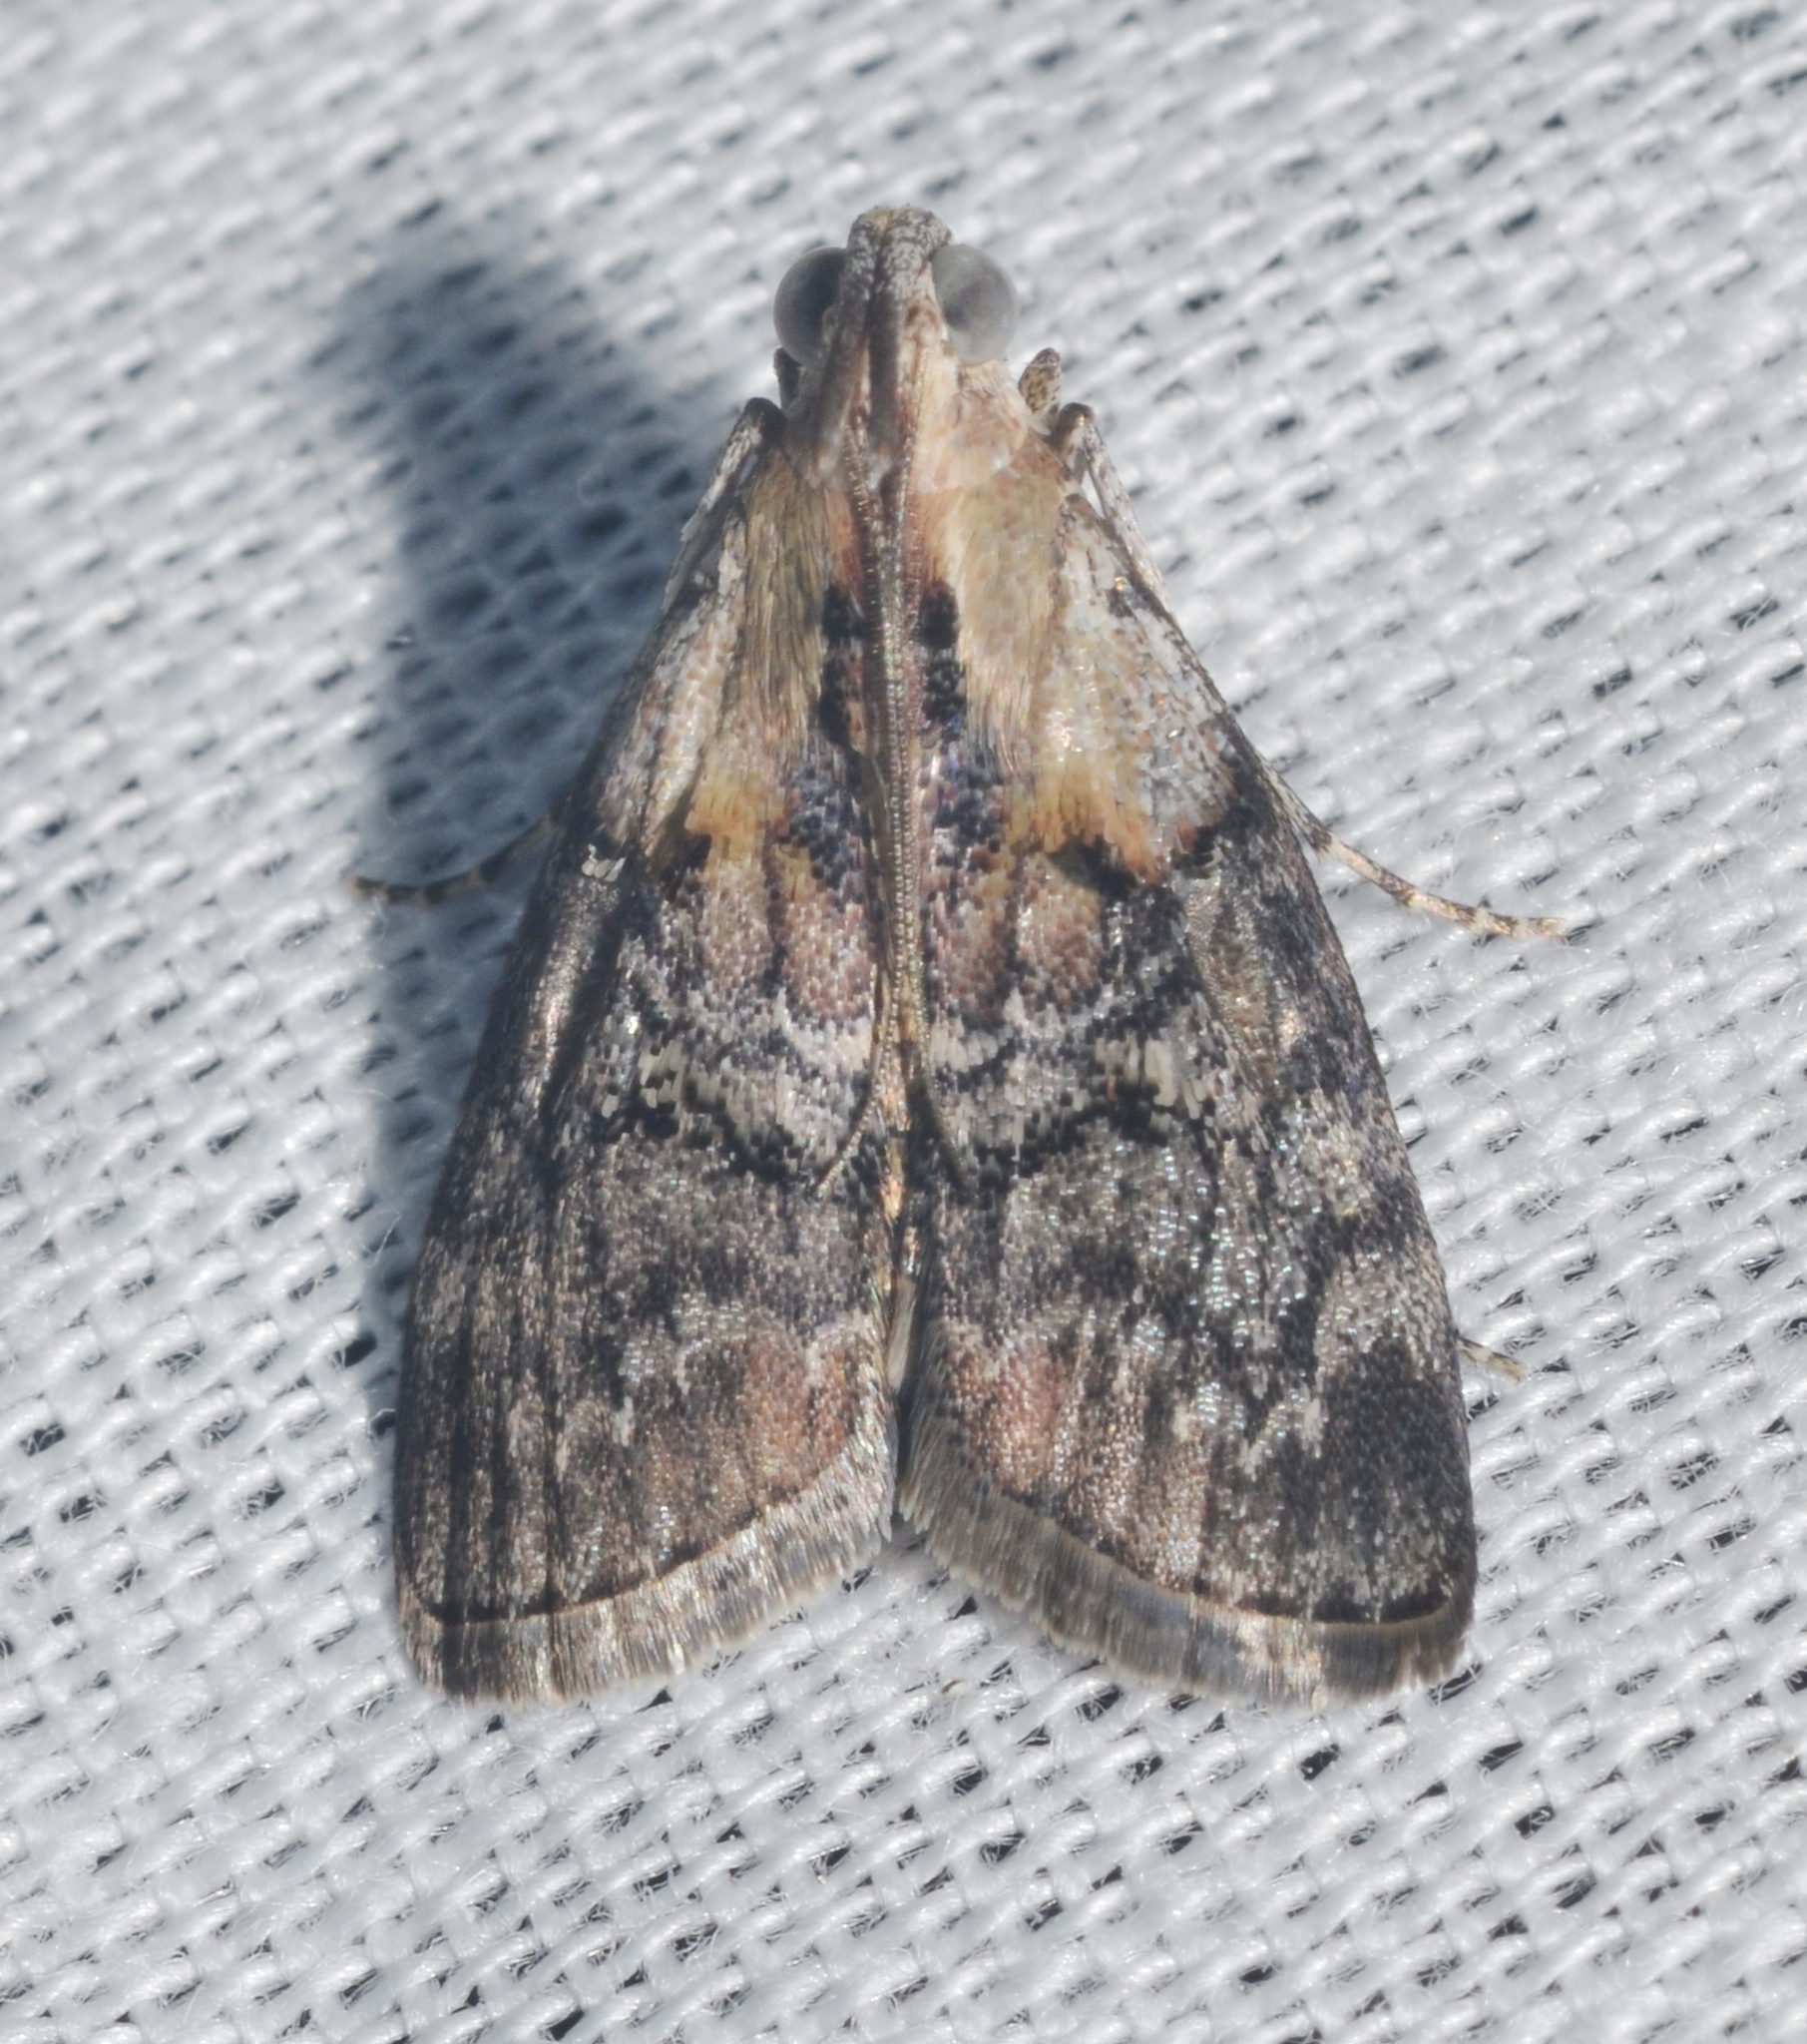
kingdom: Animalia
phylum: Arthropoda
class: Insecta
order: Lepidoptera
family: Pyralidae
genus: Pococera
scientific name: Pococera expandens
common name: Striped oak webworm moth
